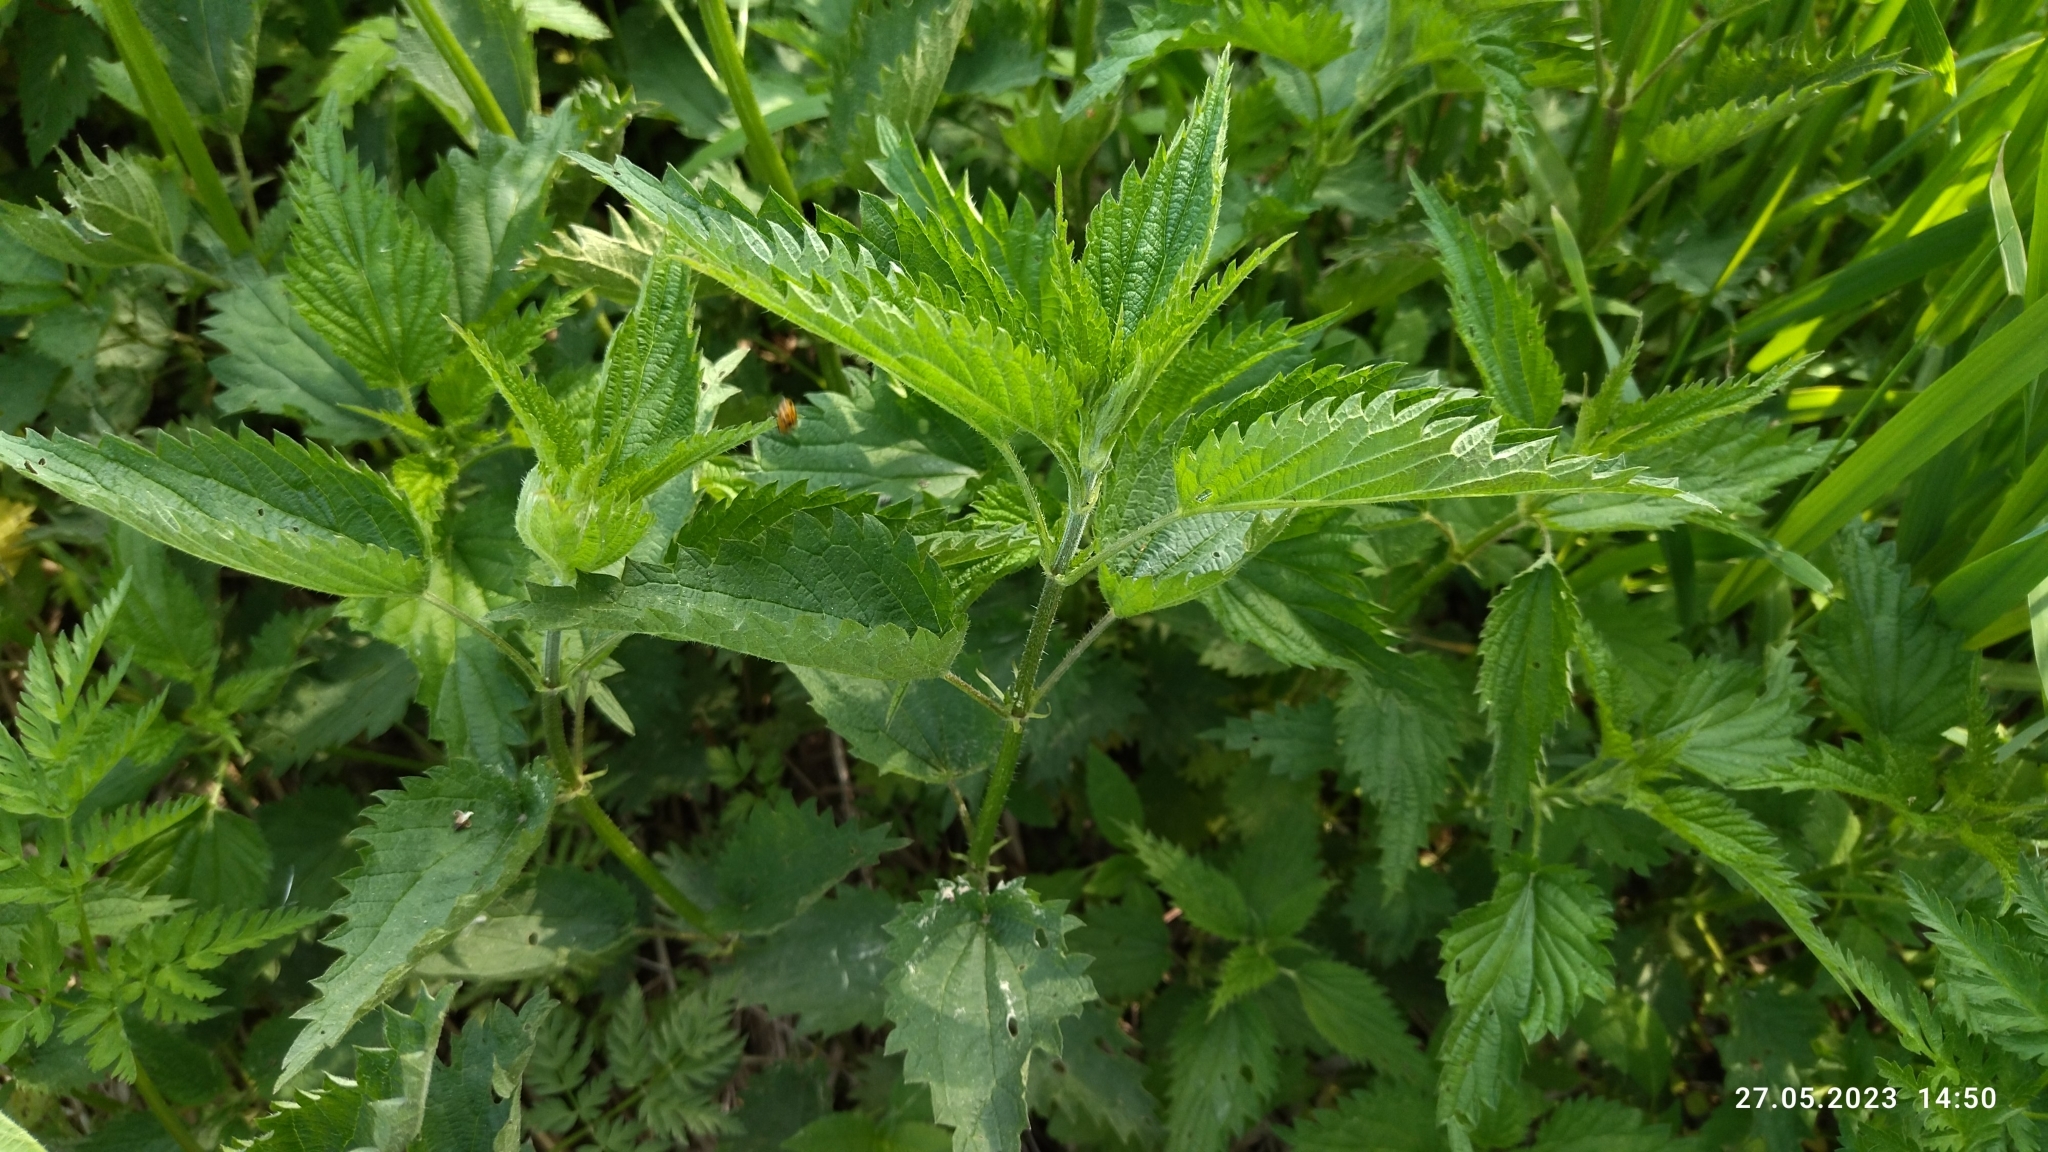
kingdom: Plantae
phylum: Tracheophyta
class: Magnoliopsida
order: Rosales
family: Urticaceae
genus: Urtica
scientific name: Urtica dioica
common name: Common nettle
